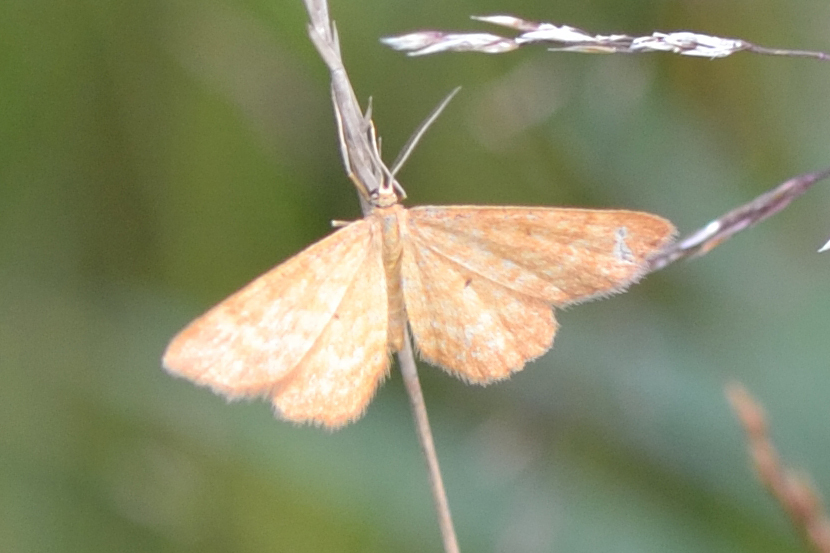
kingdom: Animalia
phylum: Arthropoda
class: Insecta
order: Lepidoptera
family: Geometridae
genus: Idaea
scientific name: Idaea serpentata
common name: Ochraceous wave
